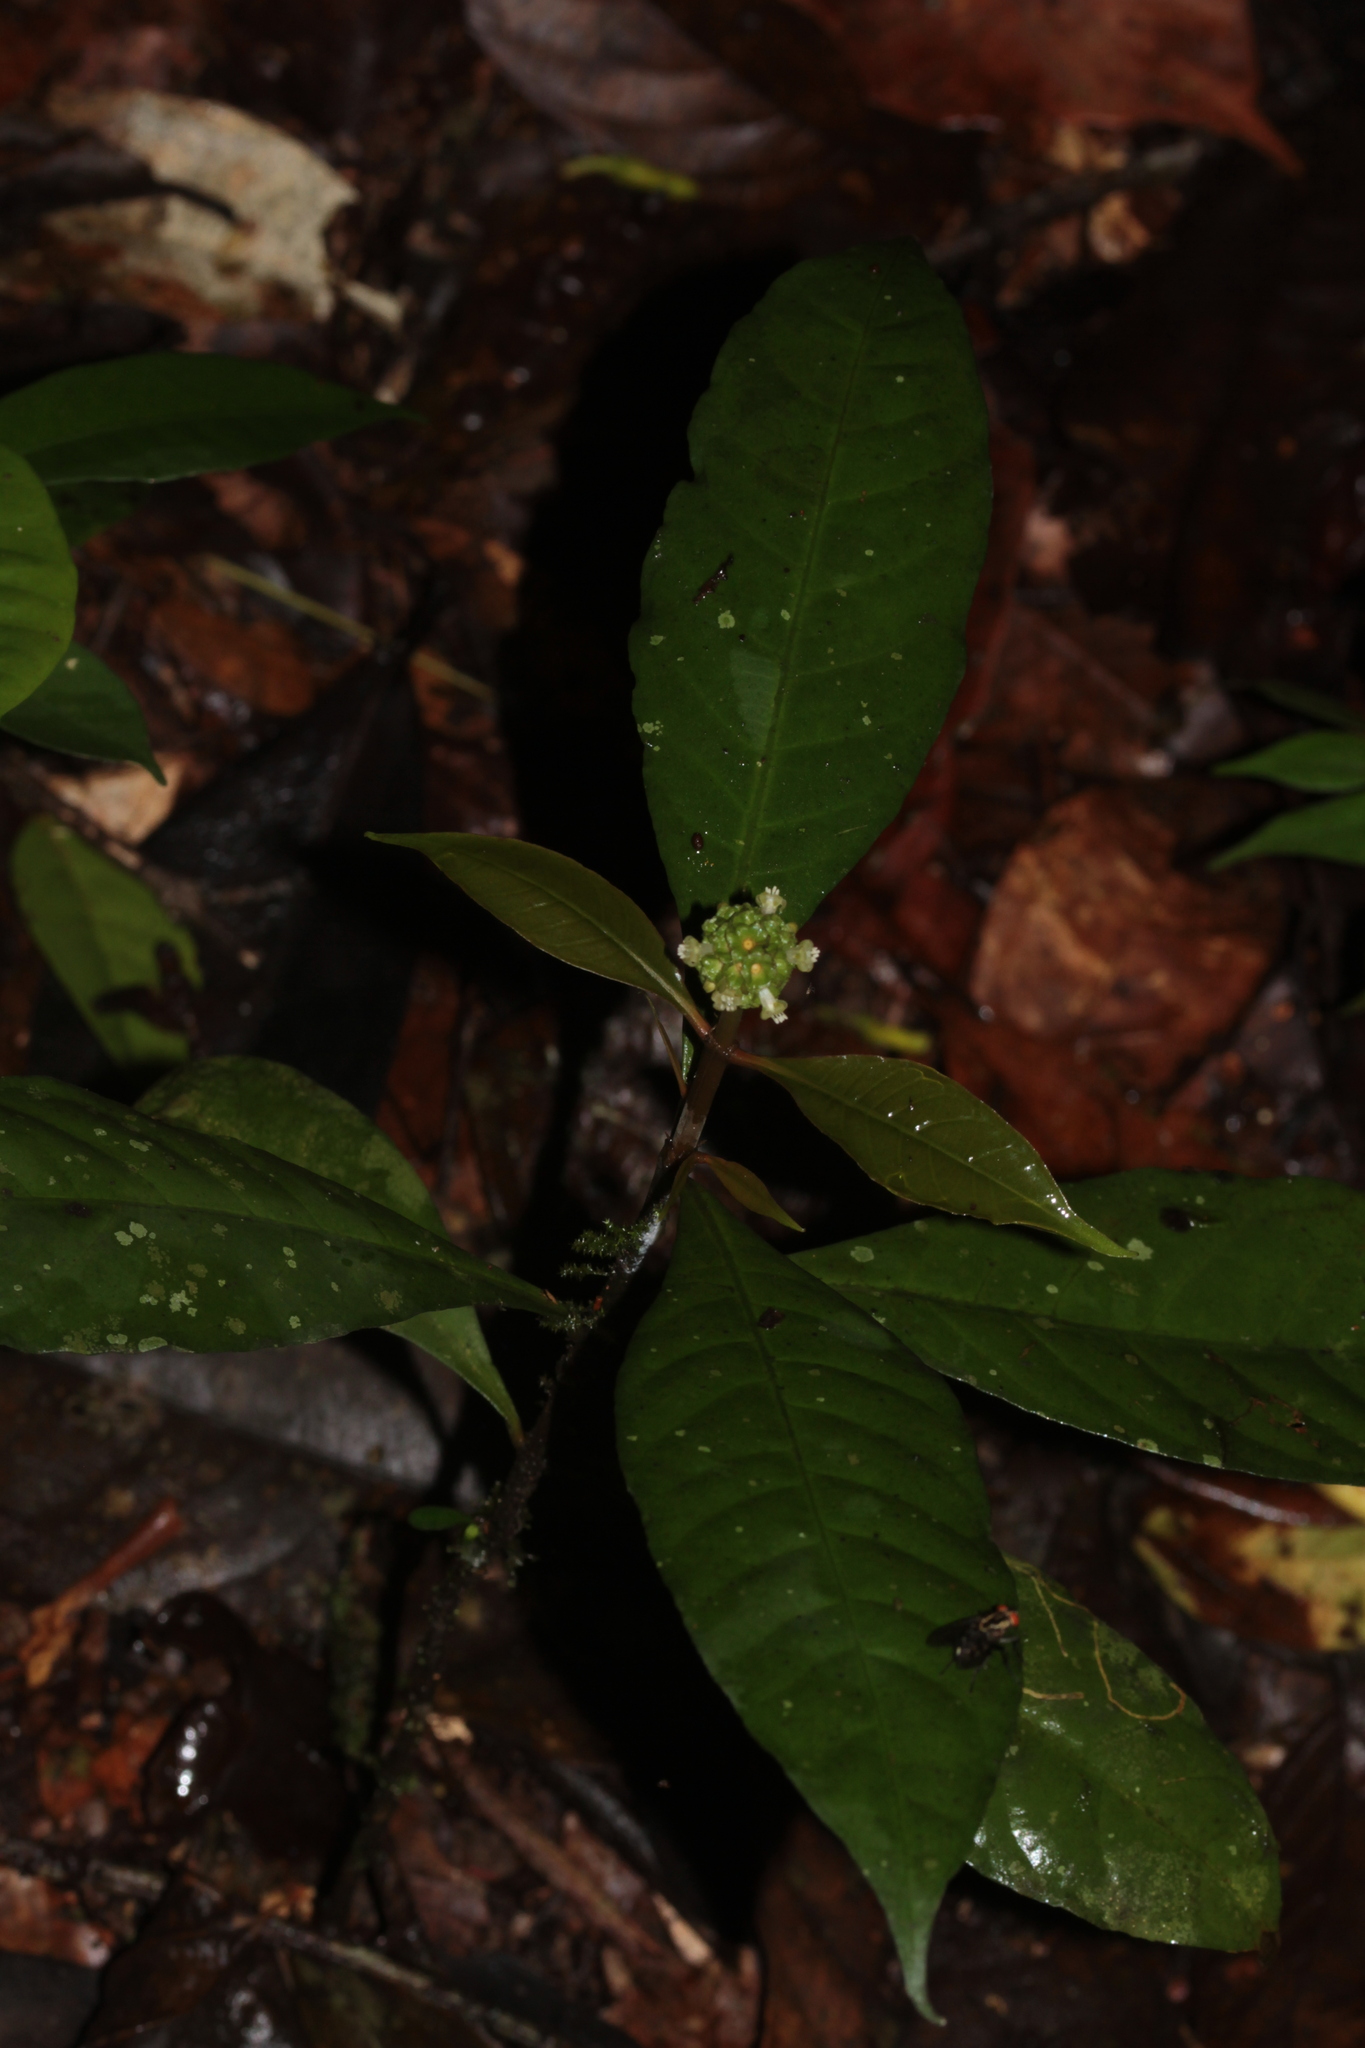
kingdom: Plantae
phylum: Tracheophyta
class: Magnoliopsida
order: Gentianales
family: Rubiaceae
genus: Eumachia
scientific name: Eumachia guianensis
